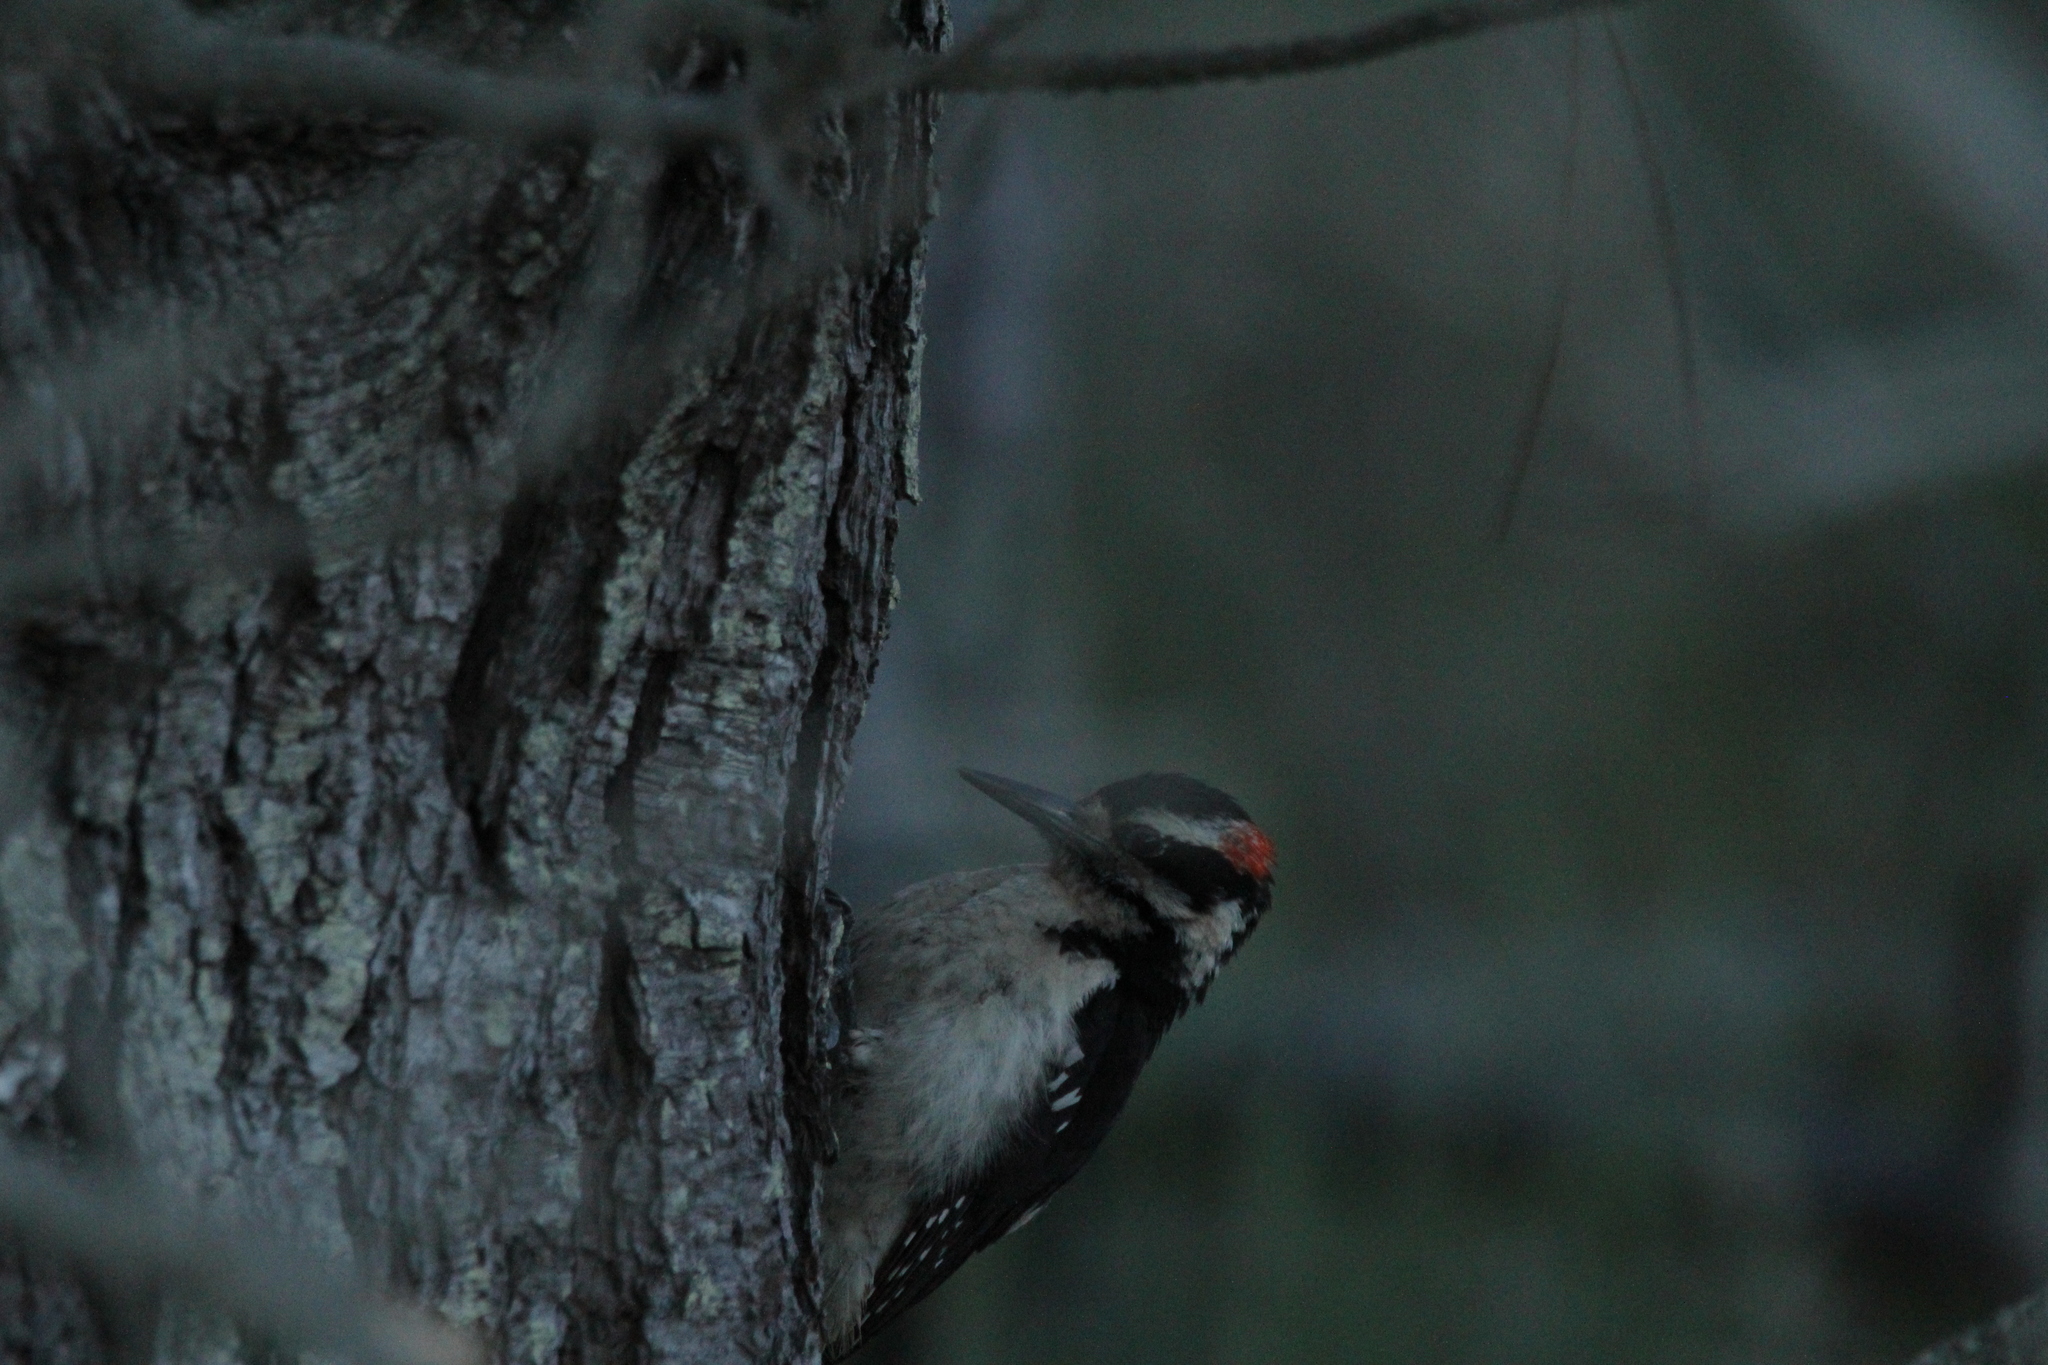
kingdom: Animalia
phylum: Chordata
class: Aves
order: Piciformes
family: Picidae
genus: Leuconotopicus
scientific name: Leuconotopicus villosus
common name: Hairy woodpecker
